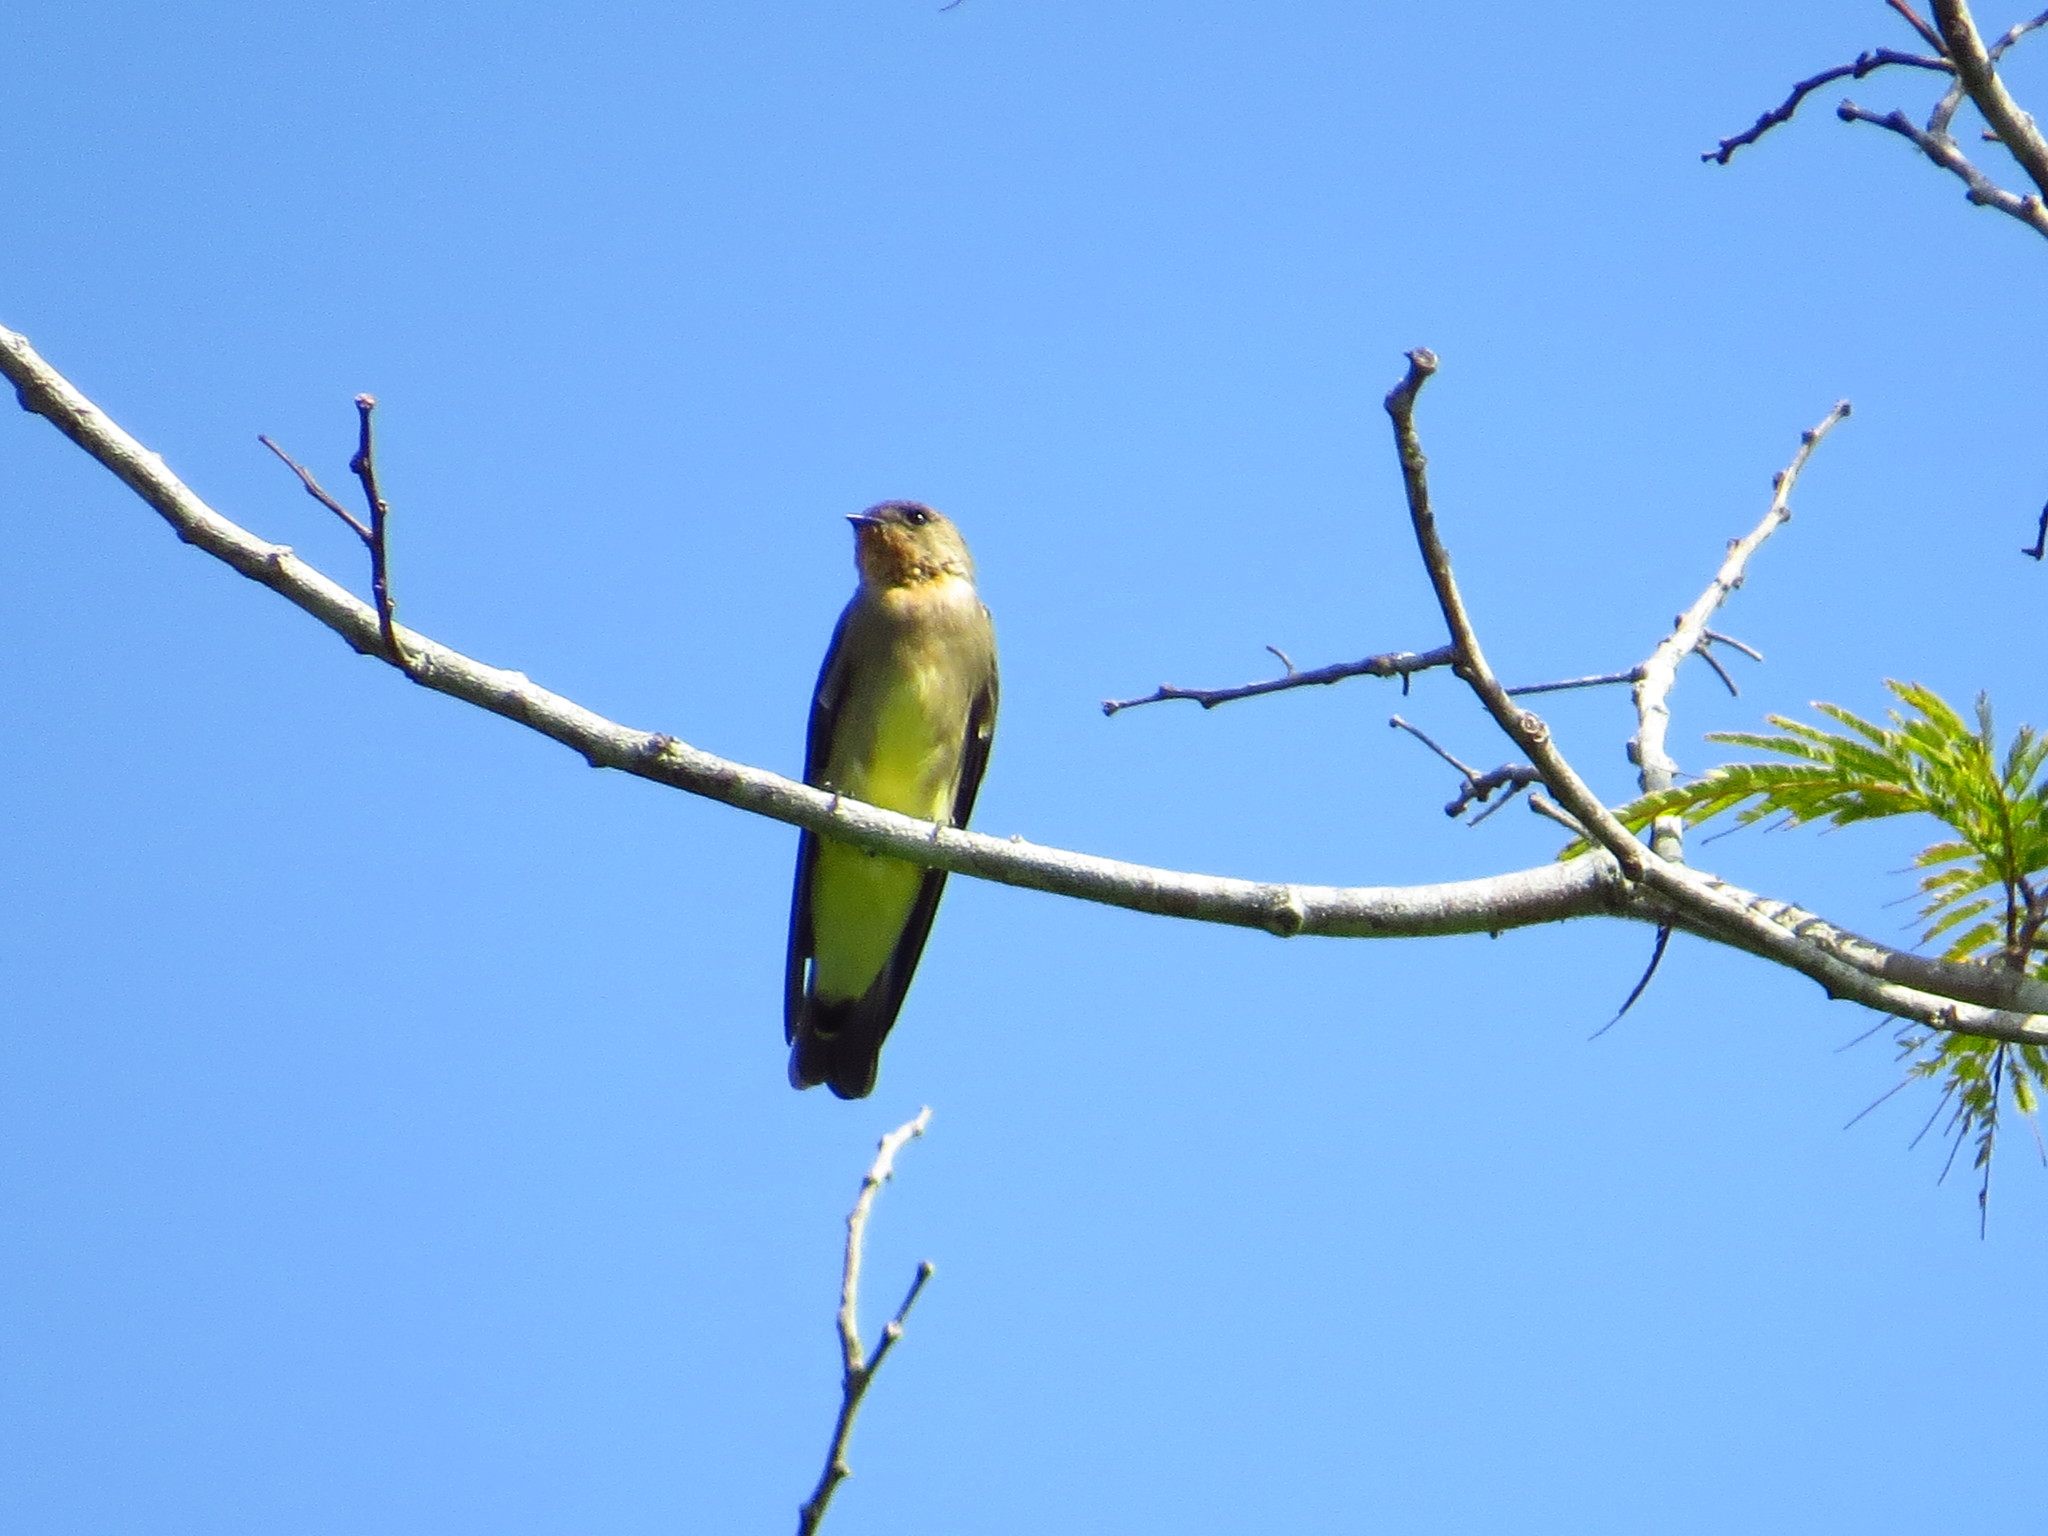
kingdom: Animalia
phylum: Chordata
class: Aves
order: Passeriformes
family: Hirundinidae
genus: Stelgidopteryx
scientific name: Stelgidopteryx ruficollis
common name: Southern rough-winged swallow
